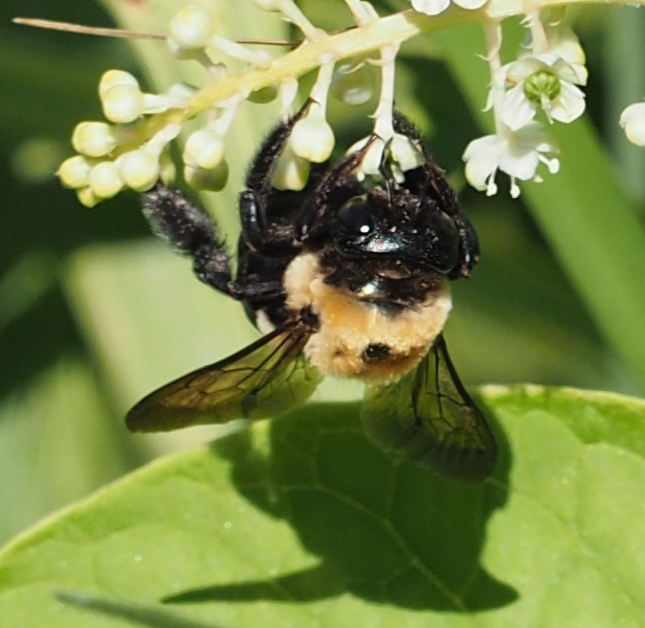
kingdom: Animalia
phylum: Arthropoda
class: Insecta
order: Hymenoptera
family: Apidae
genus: Xylocopa
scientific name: Xylocopa virginica
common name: Carpenter bee
